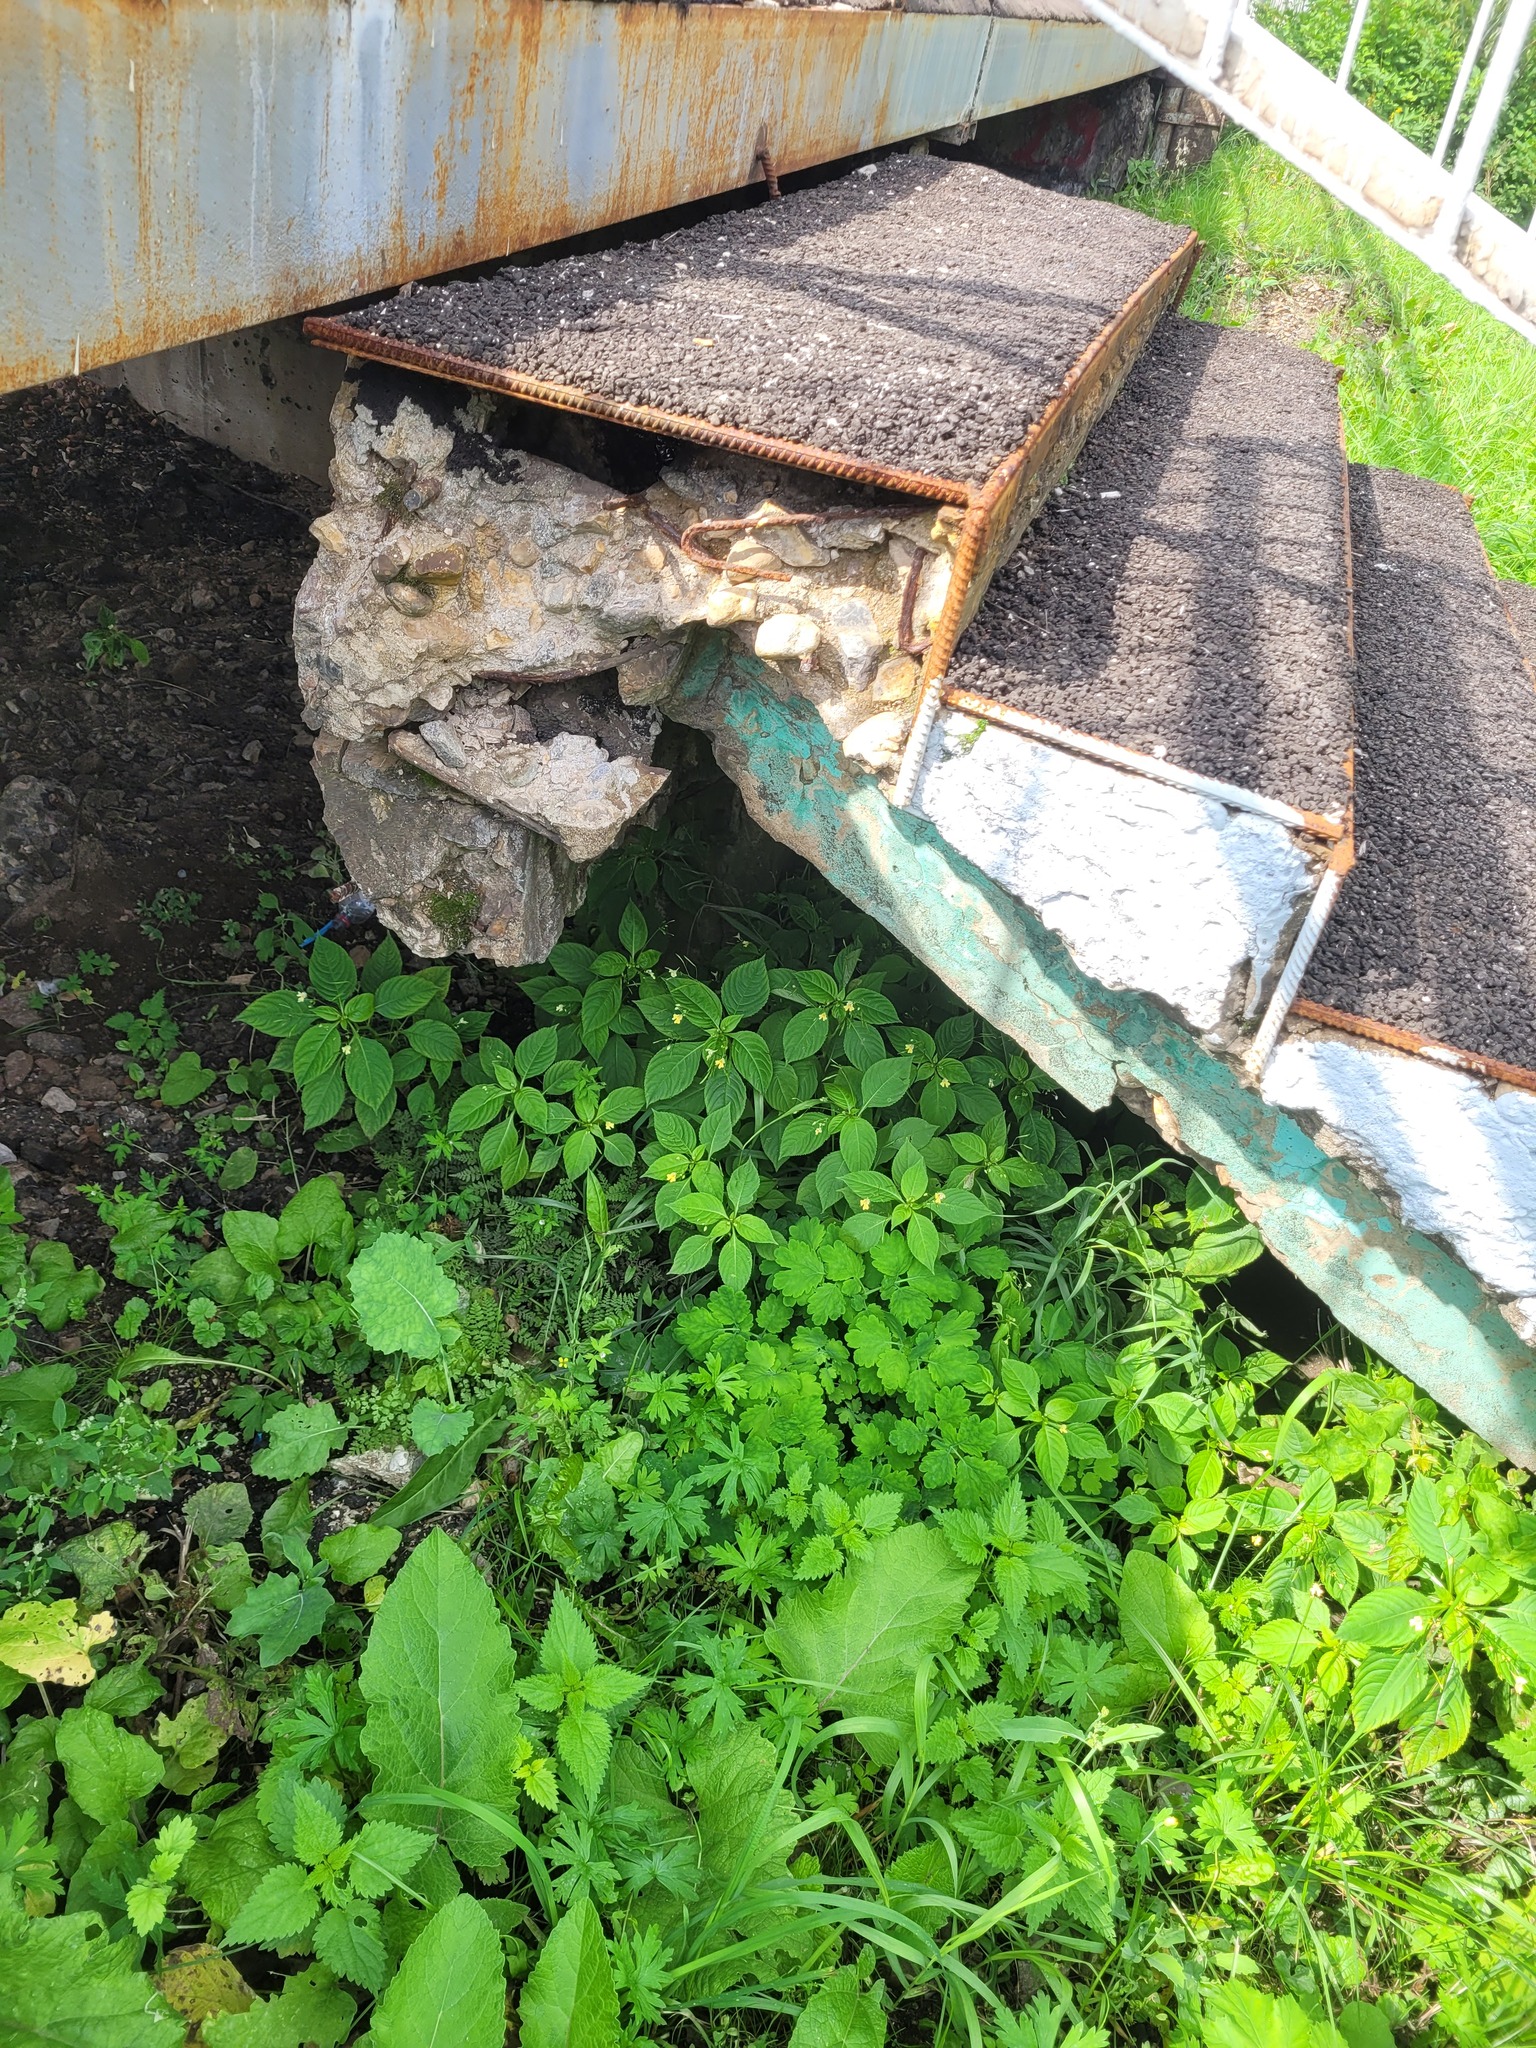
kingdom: Plantae
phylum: Tracheophyta
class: Magnoliopsida
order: Ericales
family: Balsaminaceae
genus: Impatiens
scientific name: Impatiens parviflora
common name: Small balsam
